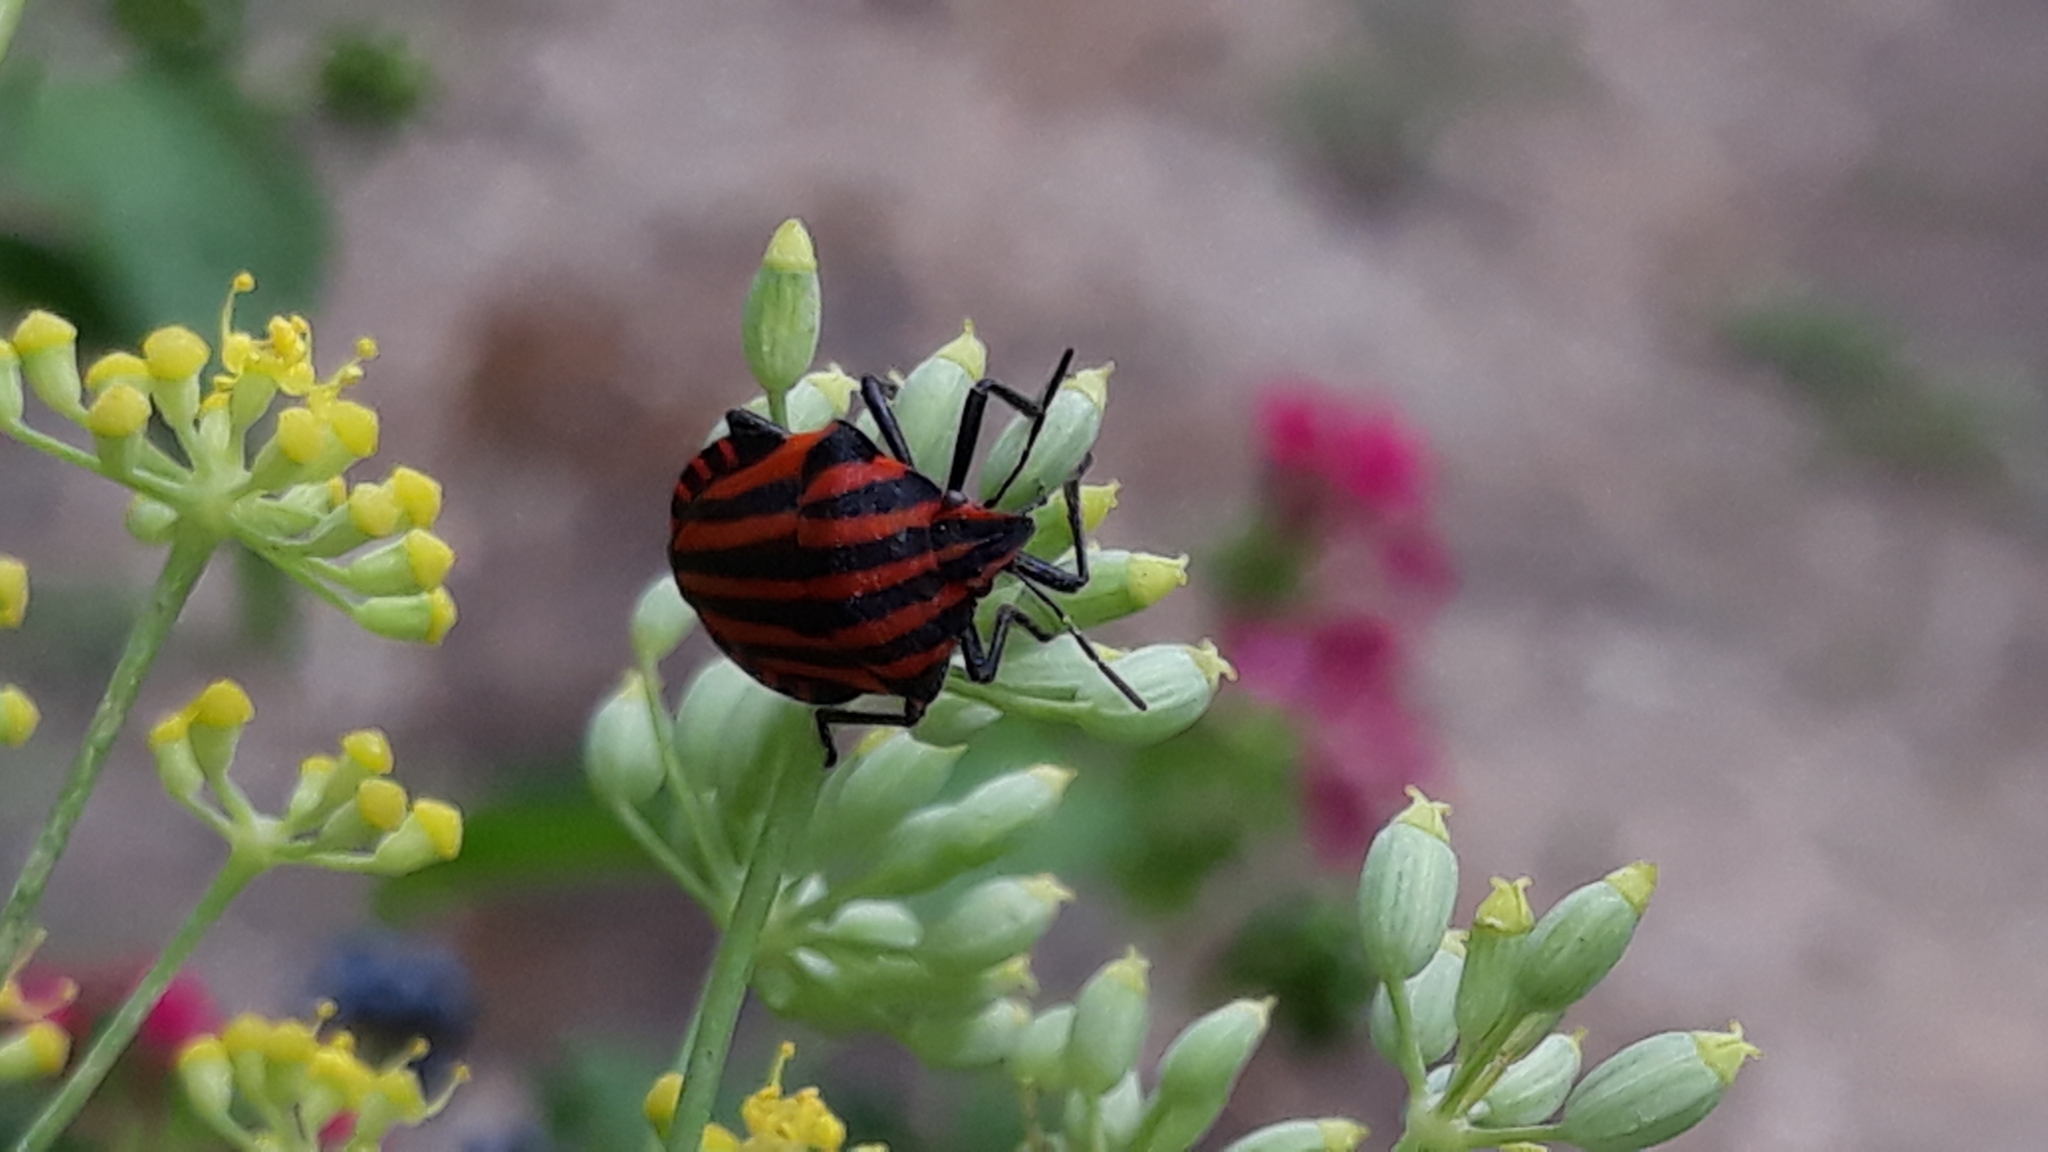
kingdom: Animalia
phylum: Arthropoda
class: Insecta
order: Hemiptera
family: Pentatomidae
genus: Graphosoma
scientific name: Graphosoma italicum
